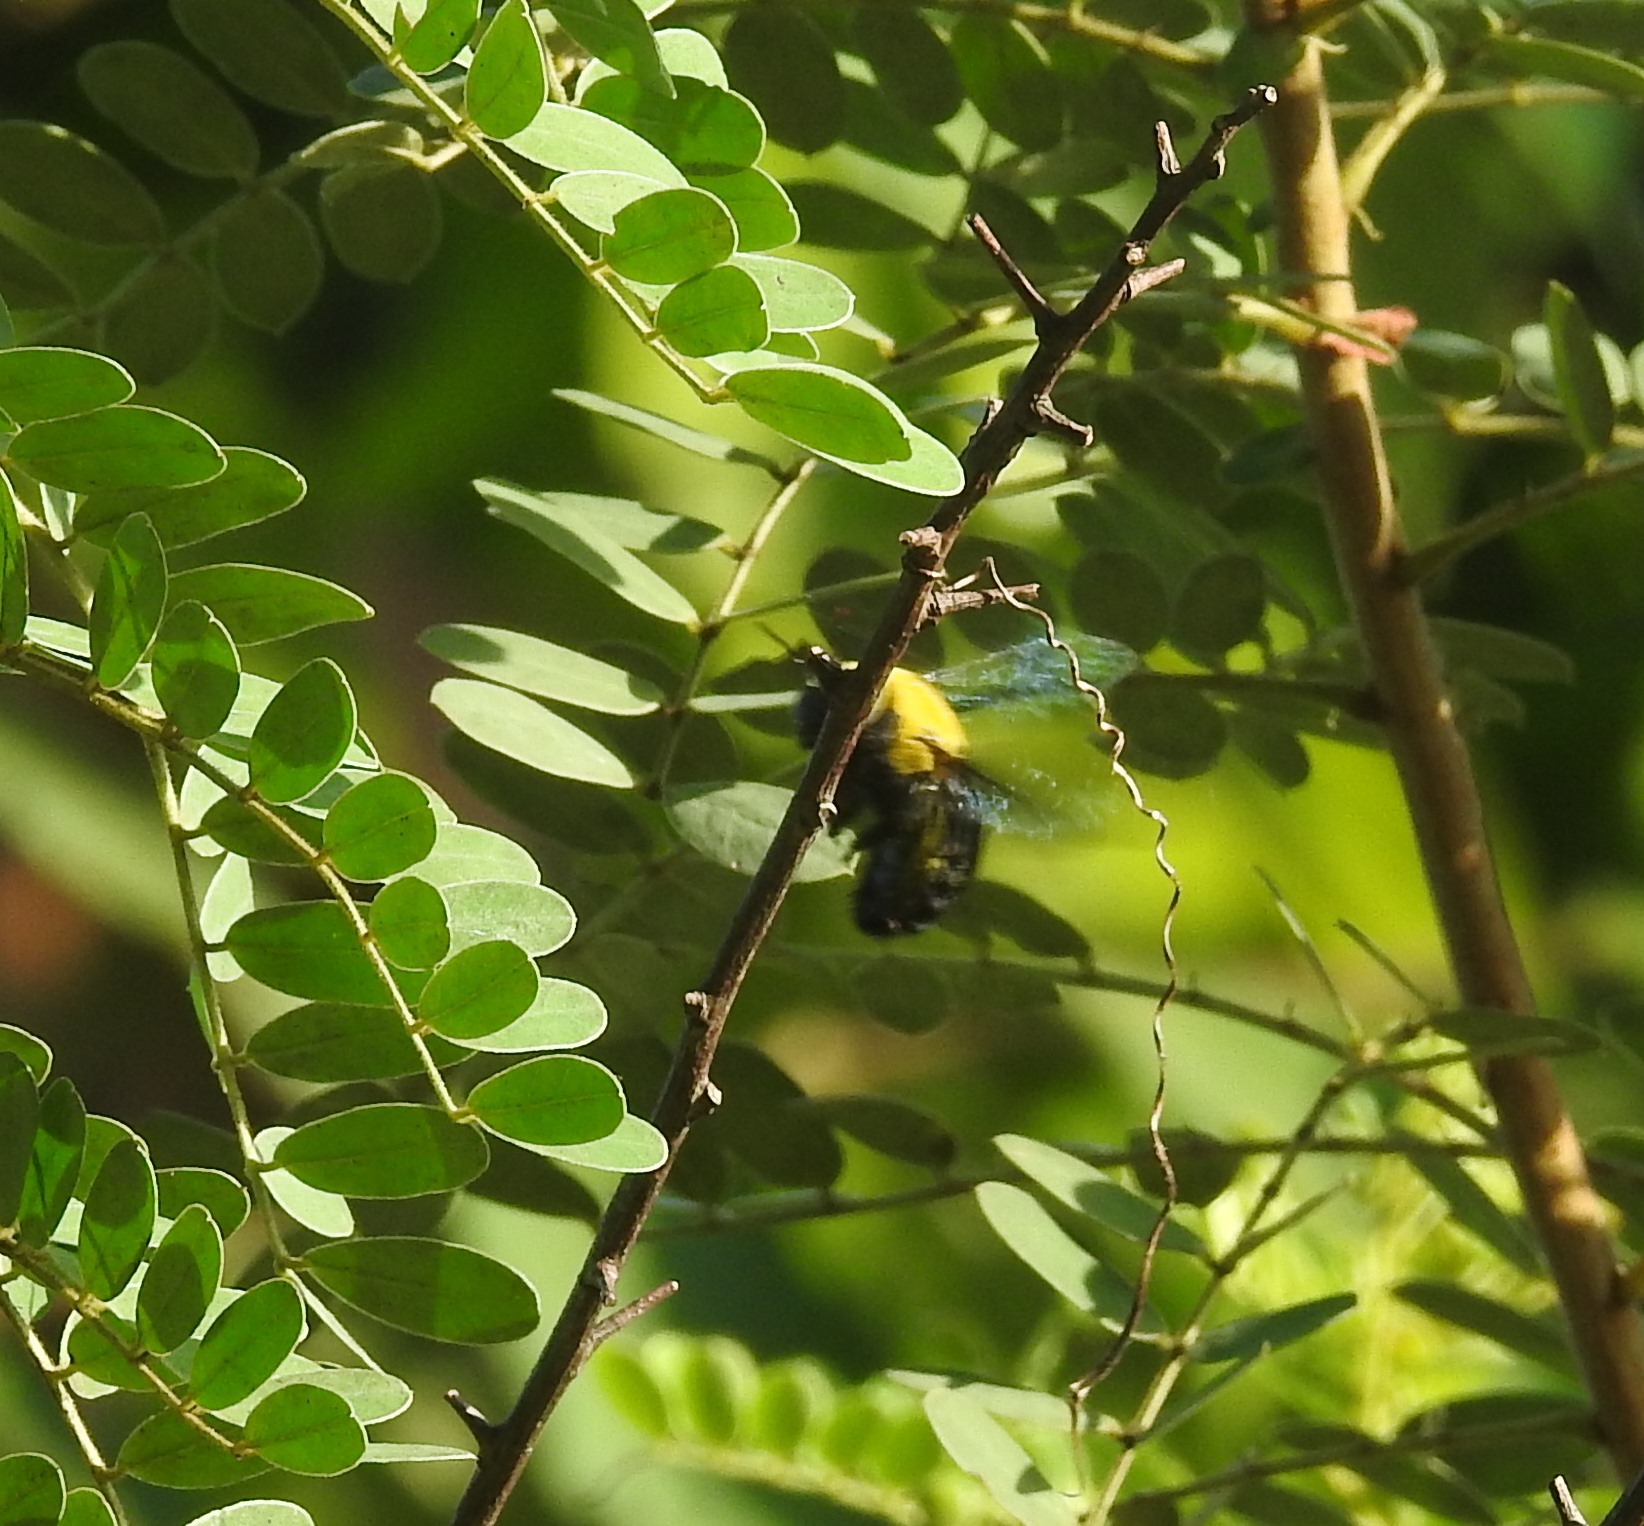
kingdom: Animalia
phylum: Arthropoda
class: Insecta
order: Hymenoptera
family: Apidae
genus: Xylocopa
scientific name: Xylocopa ruficornis
